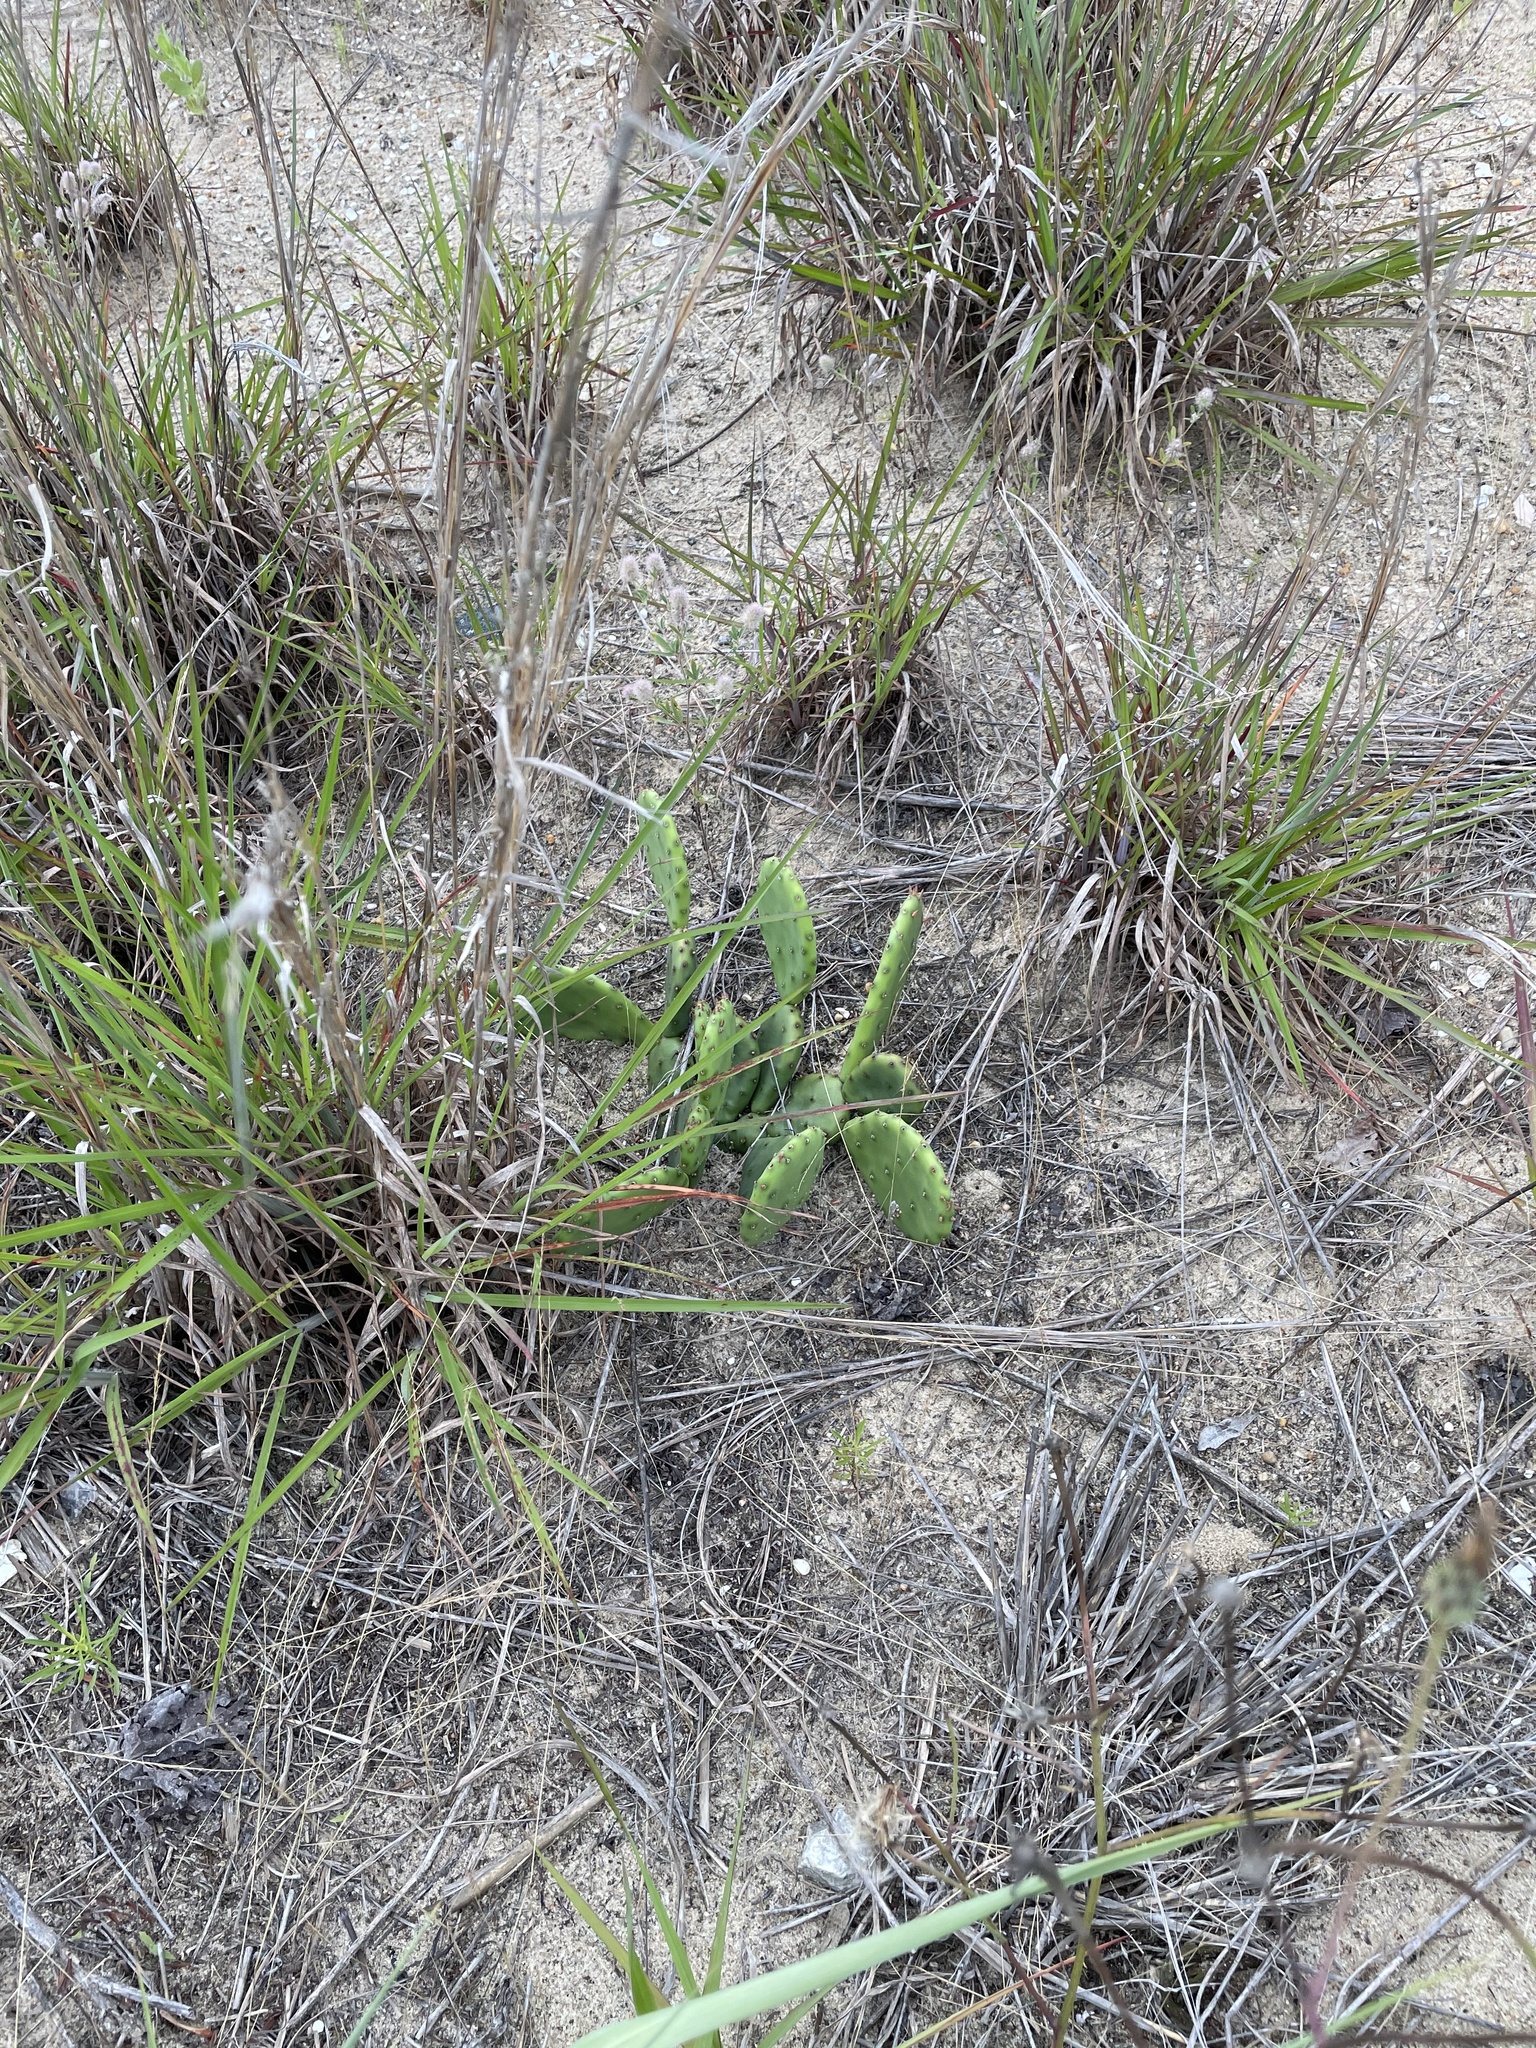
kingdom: Plantae
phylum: Tracheophyta
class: Magnoliopsida
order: Caryophyllales
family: Cactaceae
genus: Opuntia
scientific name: Opuntia humifusa
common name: Eastern prickly-pear
